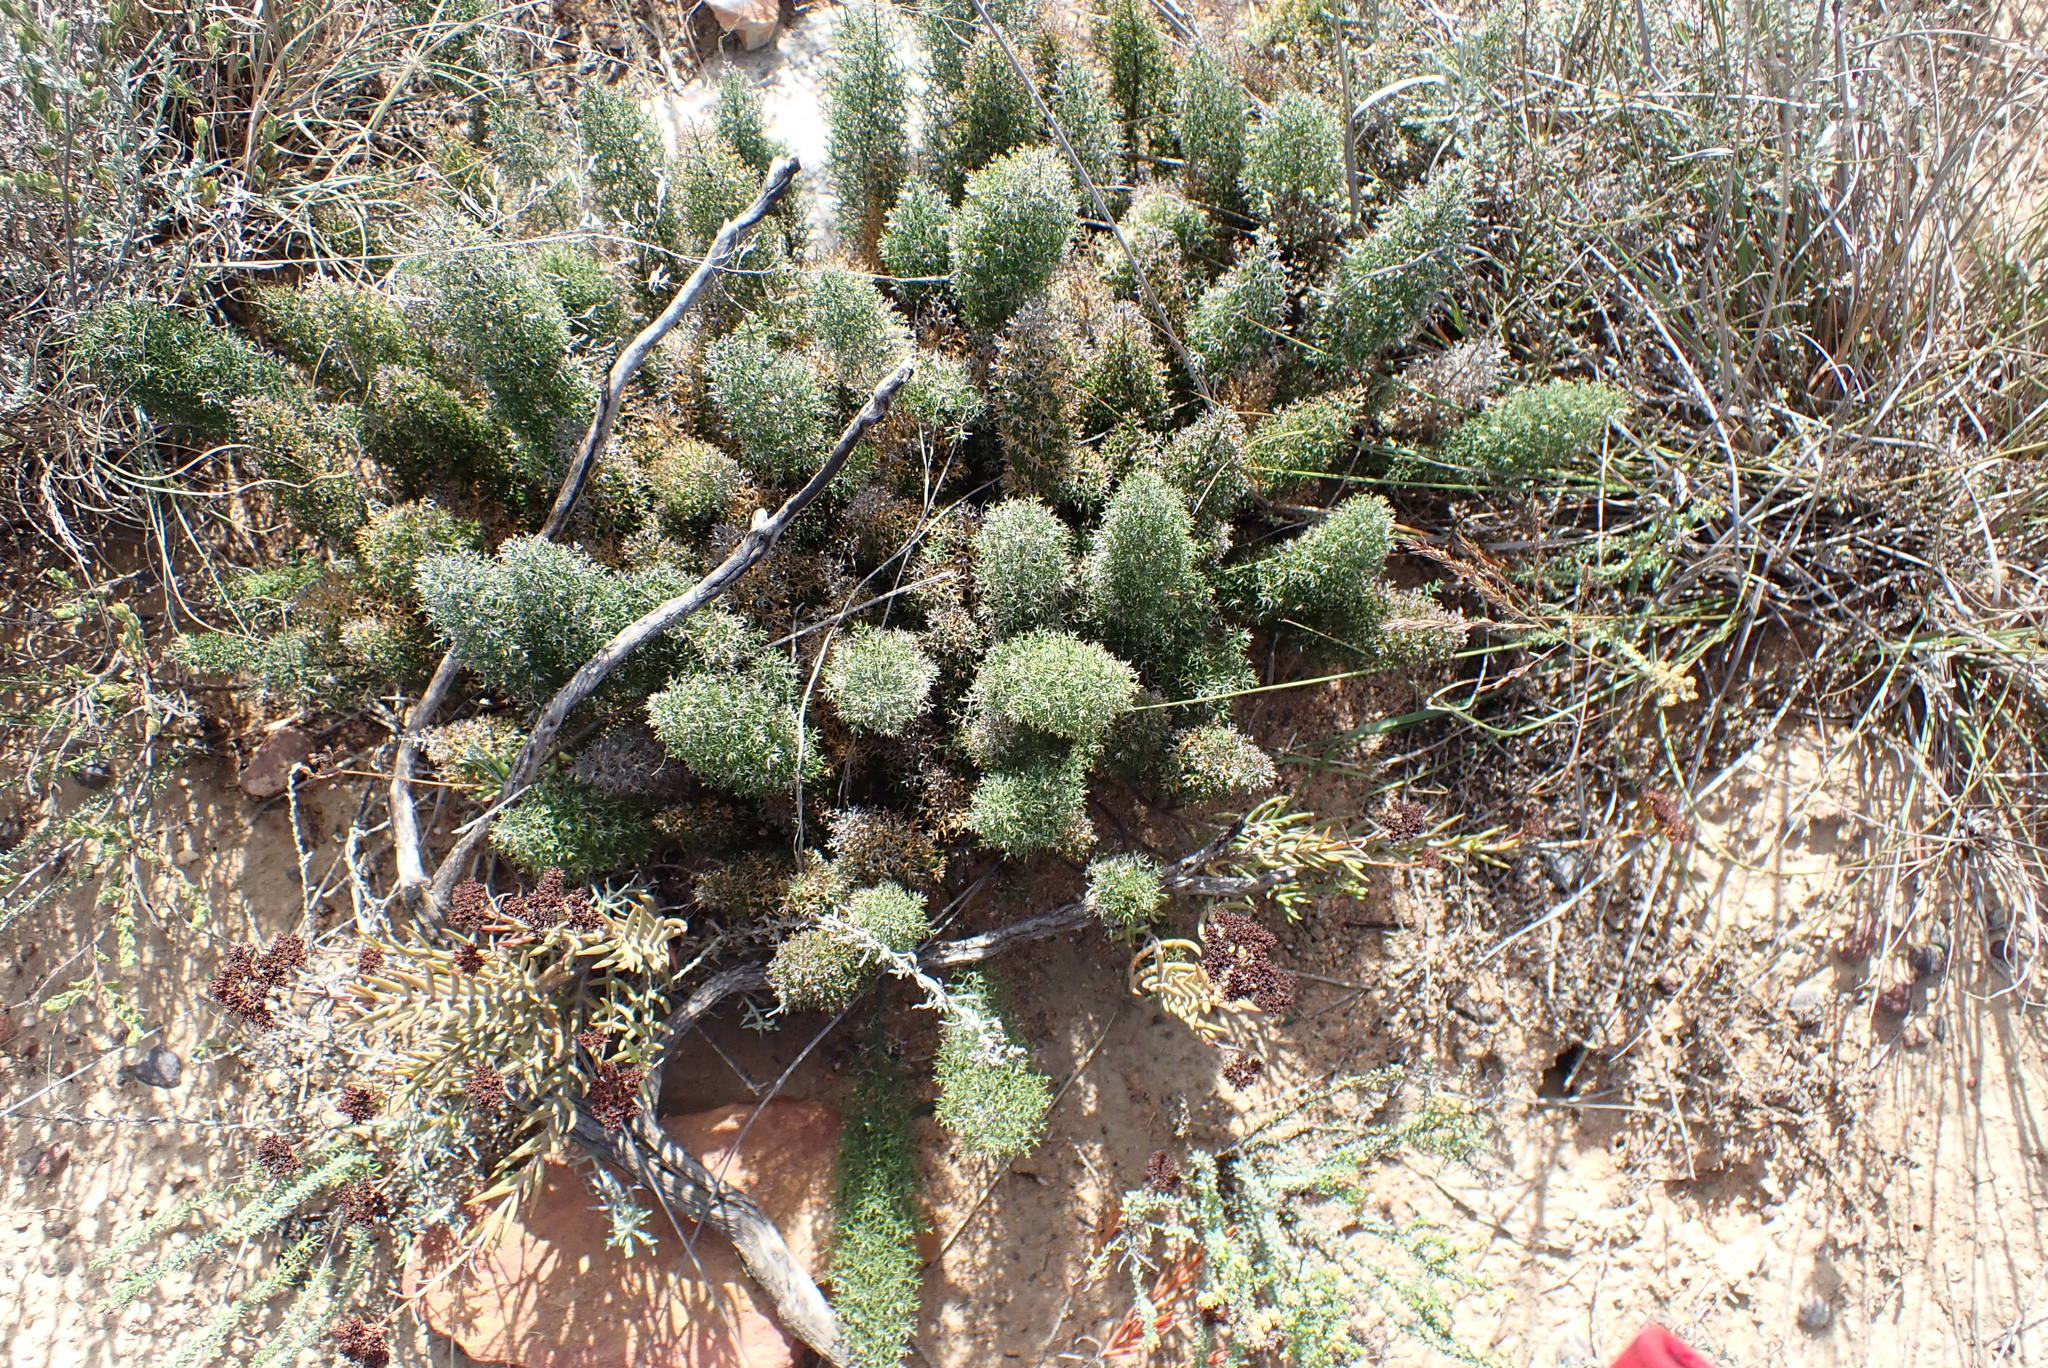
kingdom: Plantae
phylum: Tracheophyta
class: Liliopsida
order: Asparagales
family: Asparagaceae
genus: Asparagus
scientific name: Asparagus oliveri
